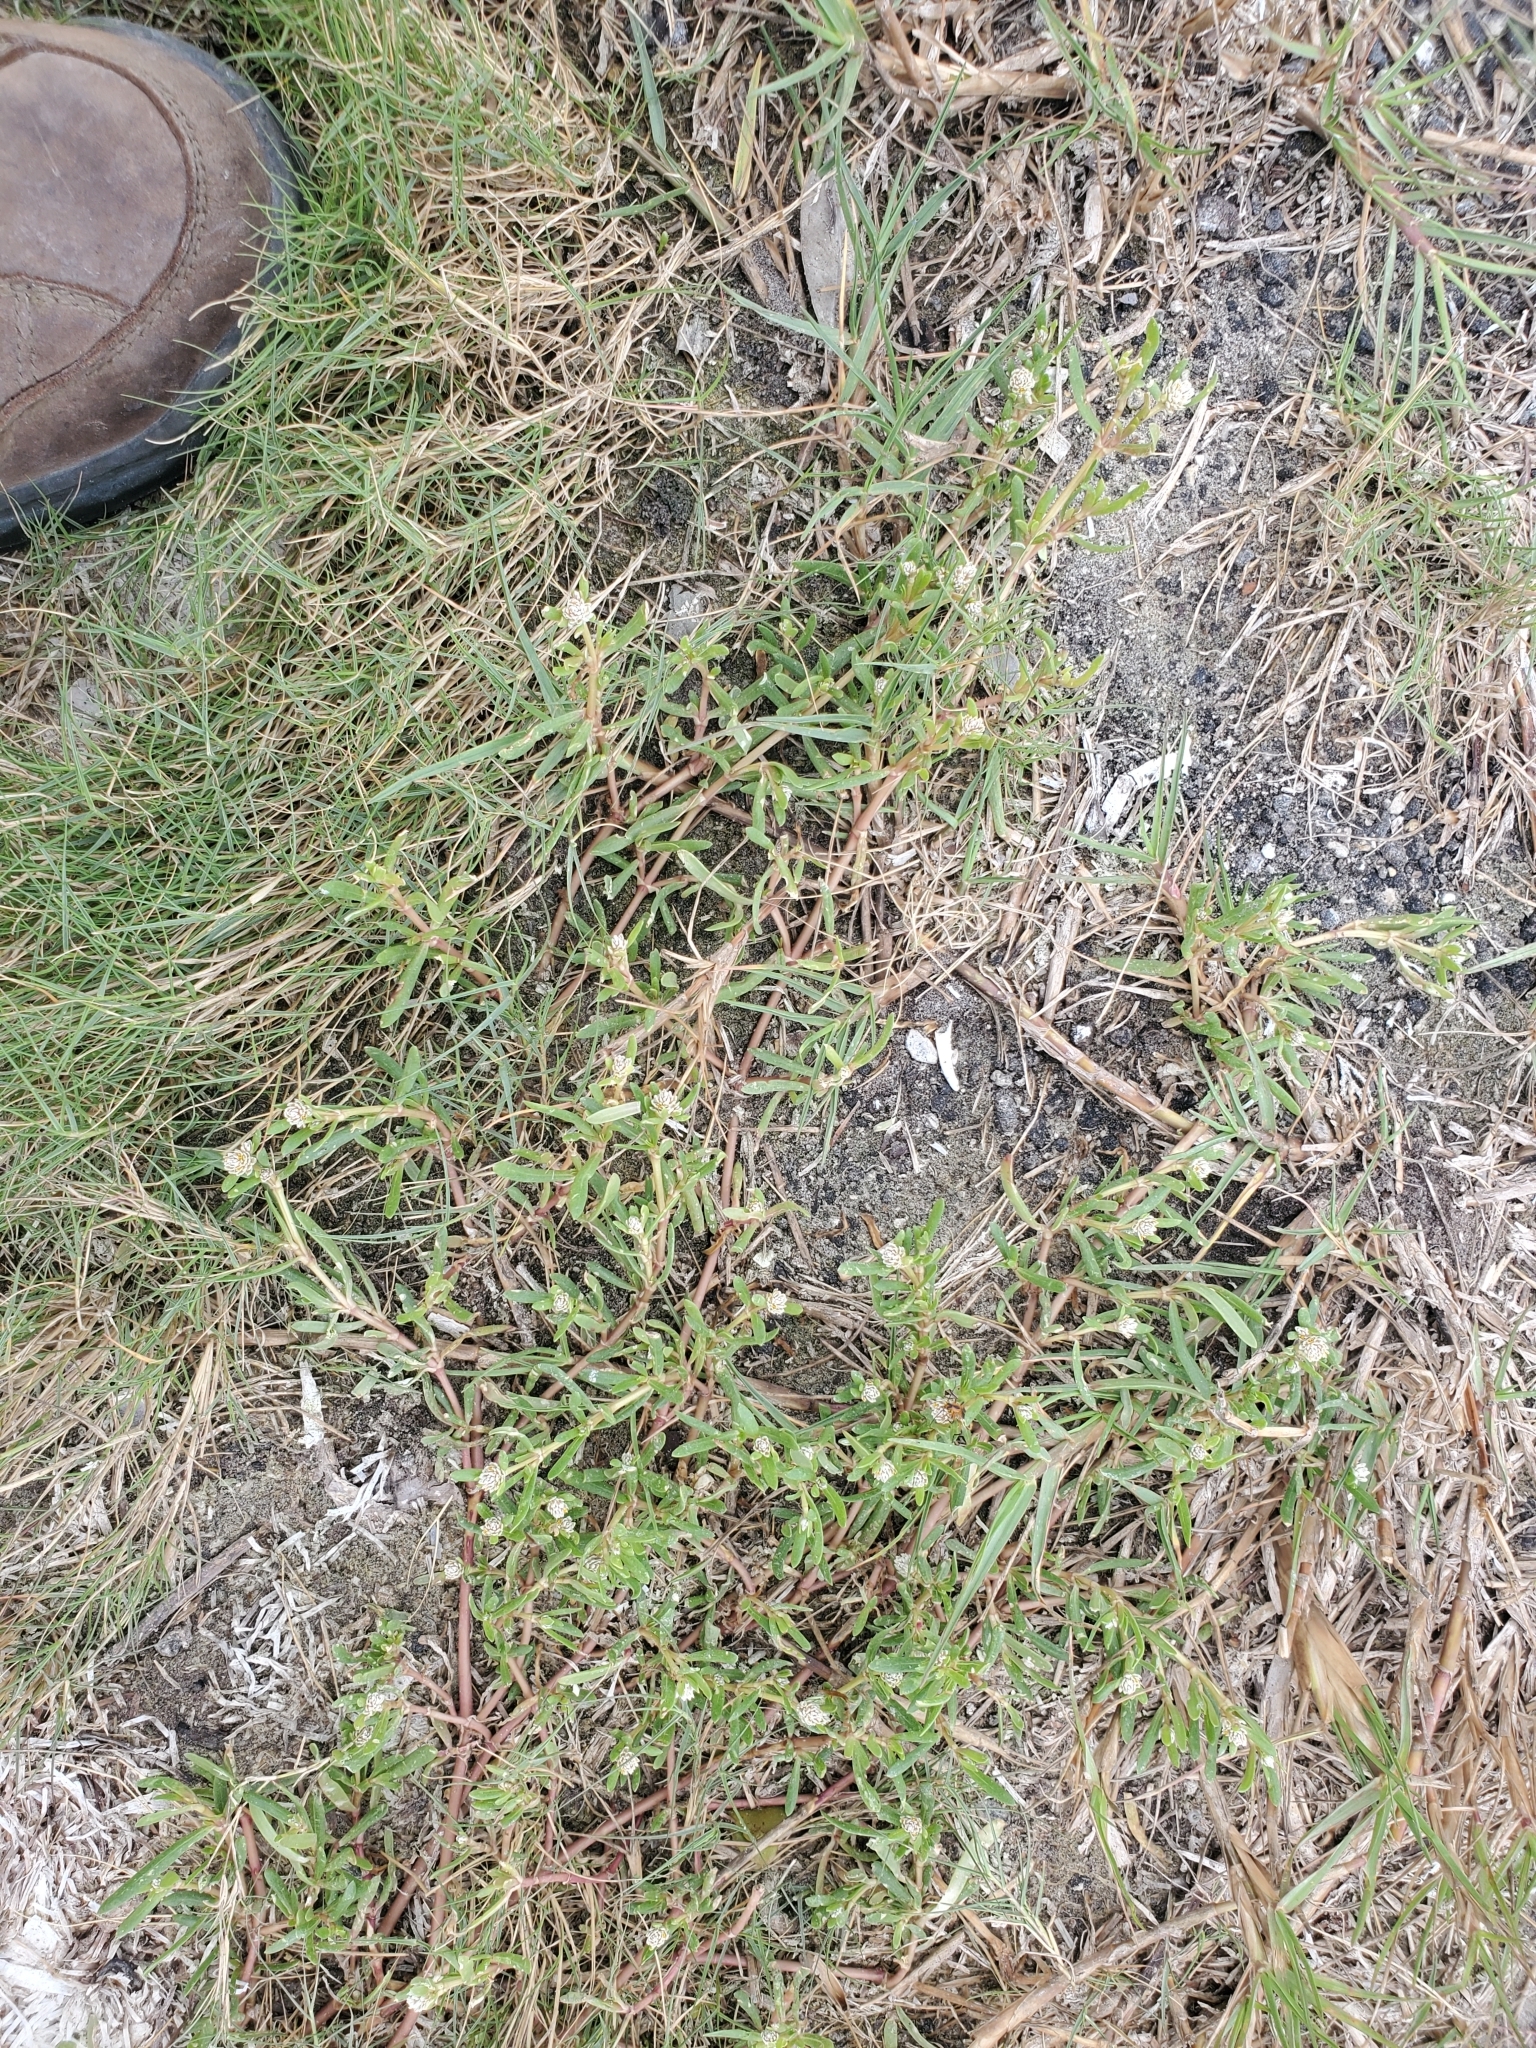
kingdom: Plantae
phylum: Tracheophyta
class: Magnoliopsida
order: Caryophyllales
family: Amaranthaceae
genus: Gomphrena
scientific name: Gomphrena vermicularis
